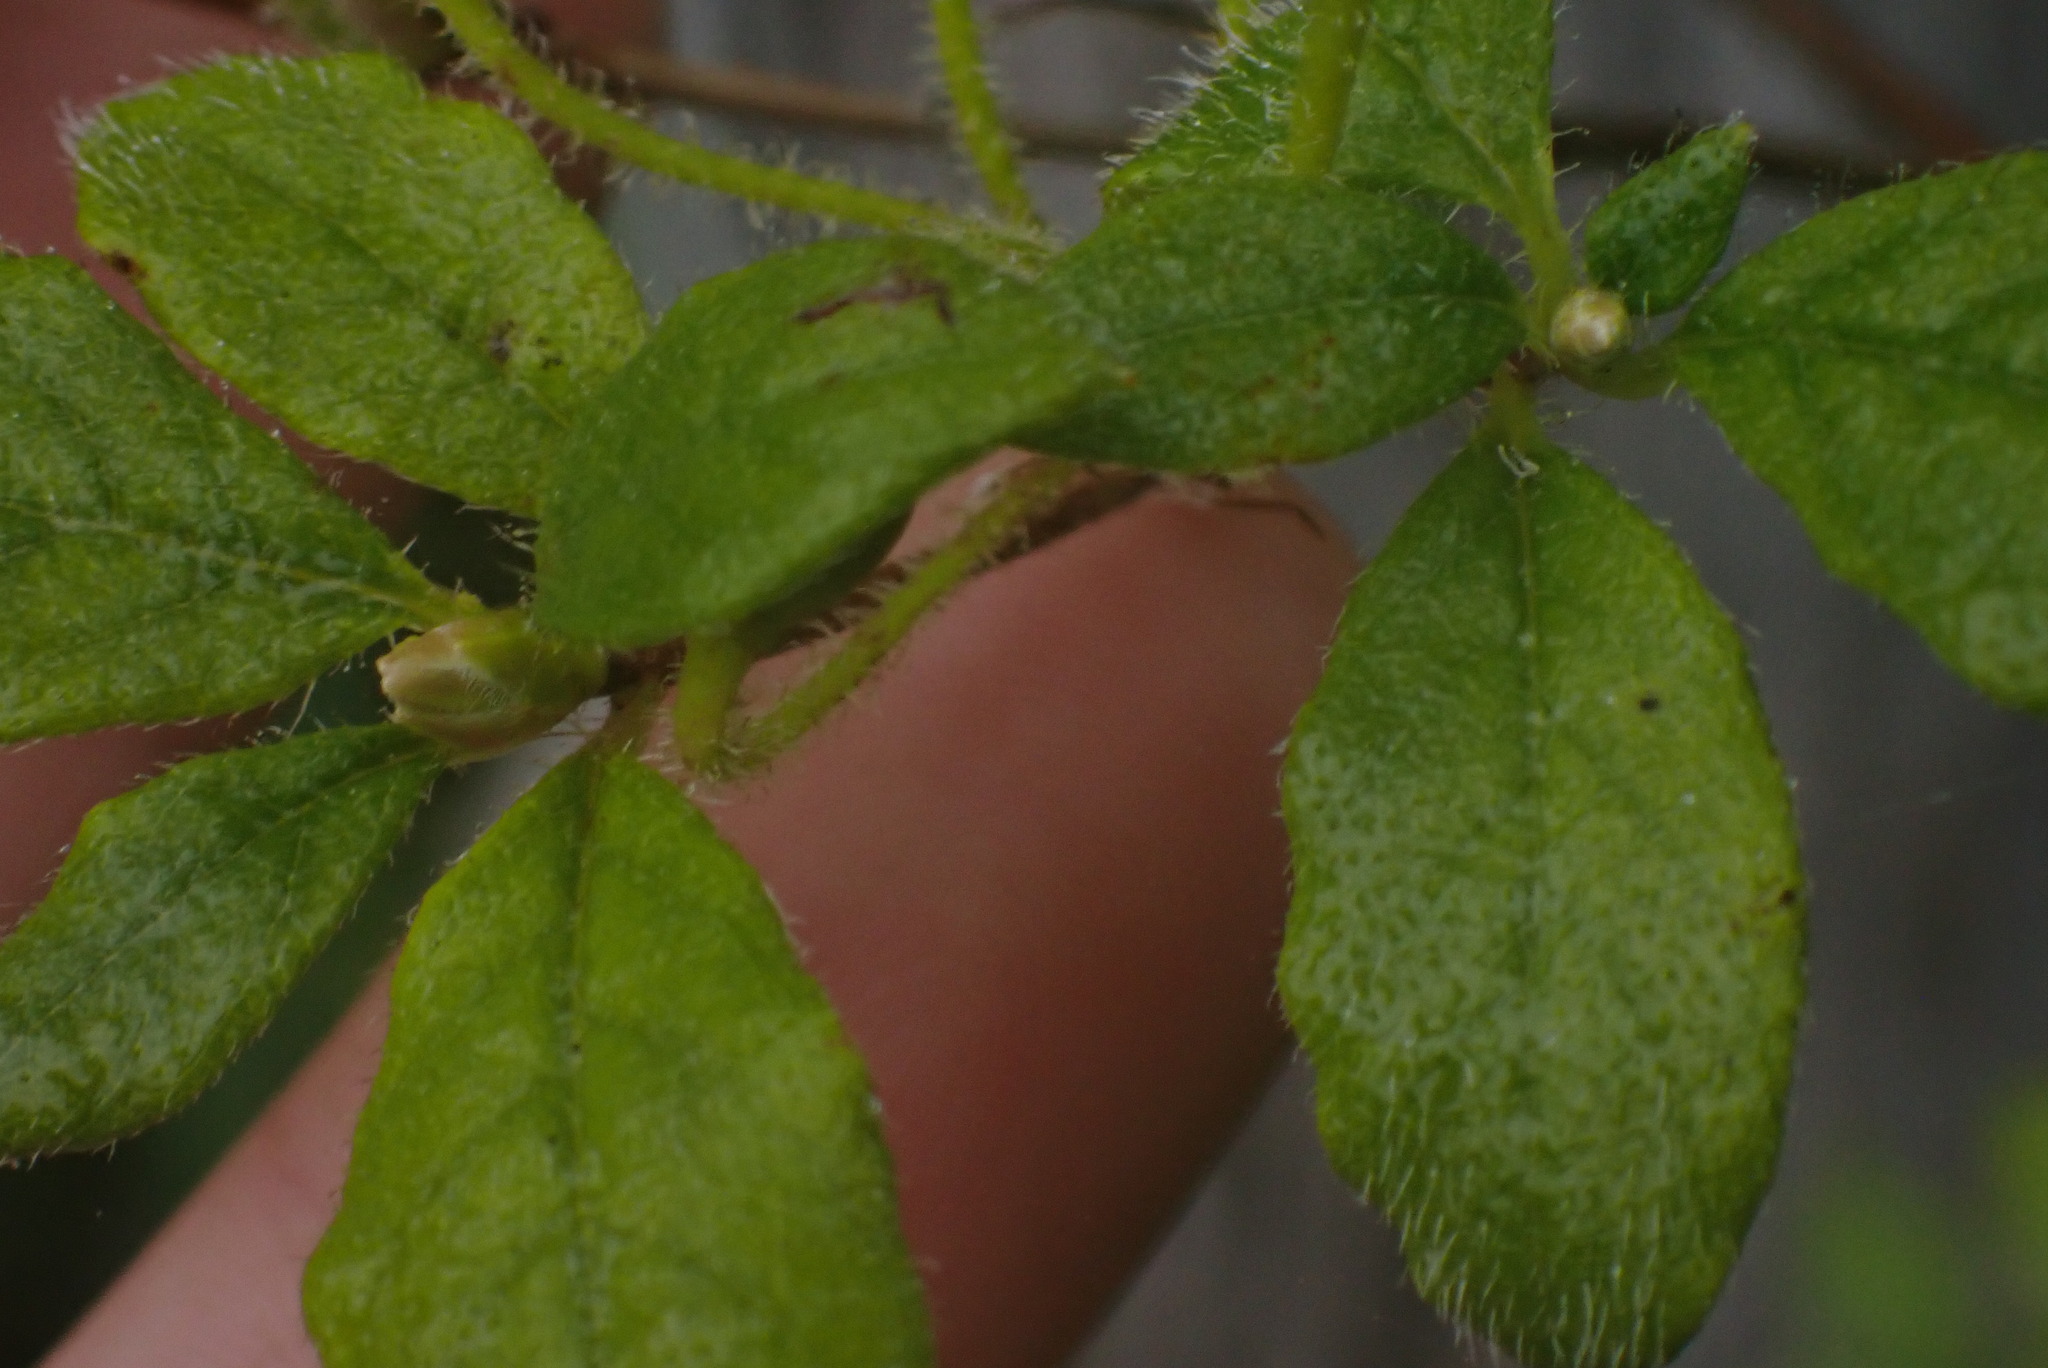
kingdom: Plantae
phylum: Tracheophyta
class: Magnoliopsida
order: Ericales
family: Ericaceae
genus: Rhododendron
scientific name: Rhododendron menziesii
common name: Pacific menziesia
